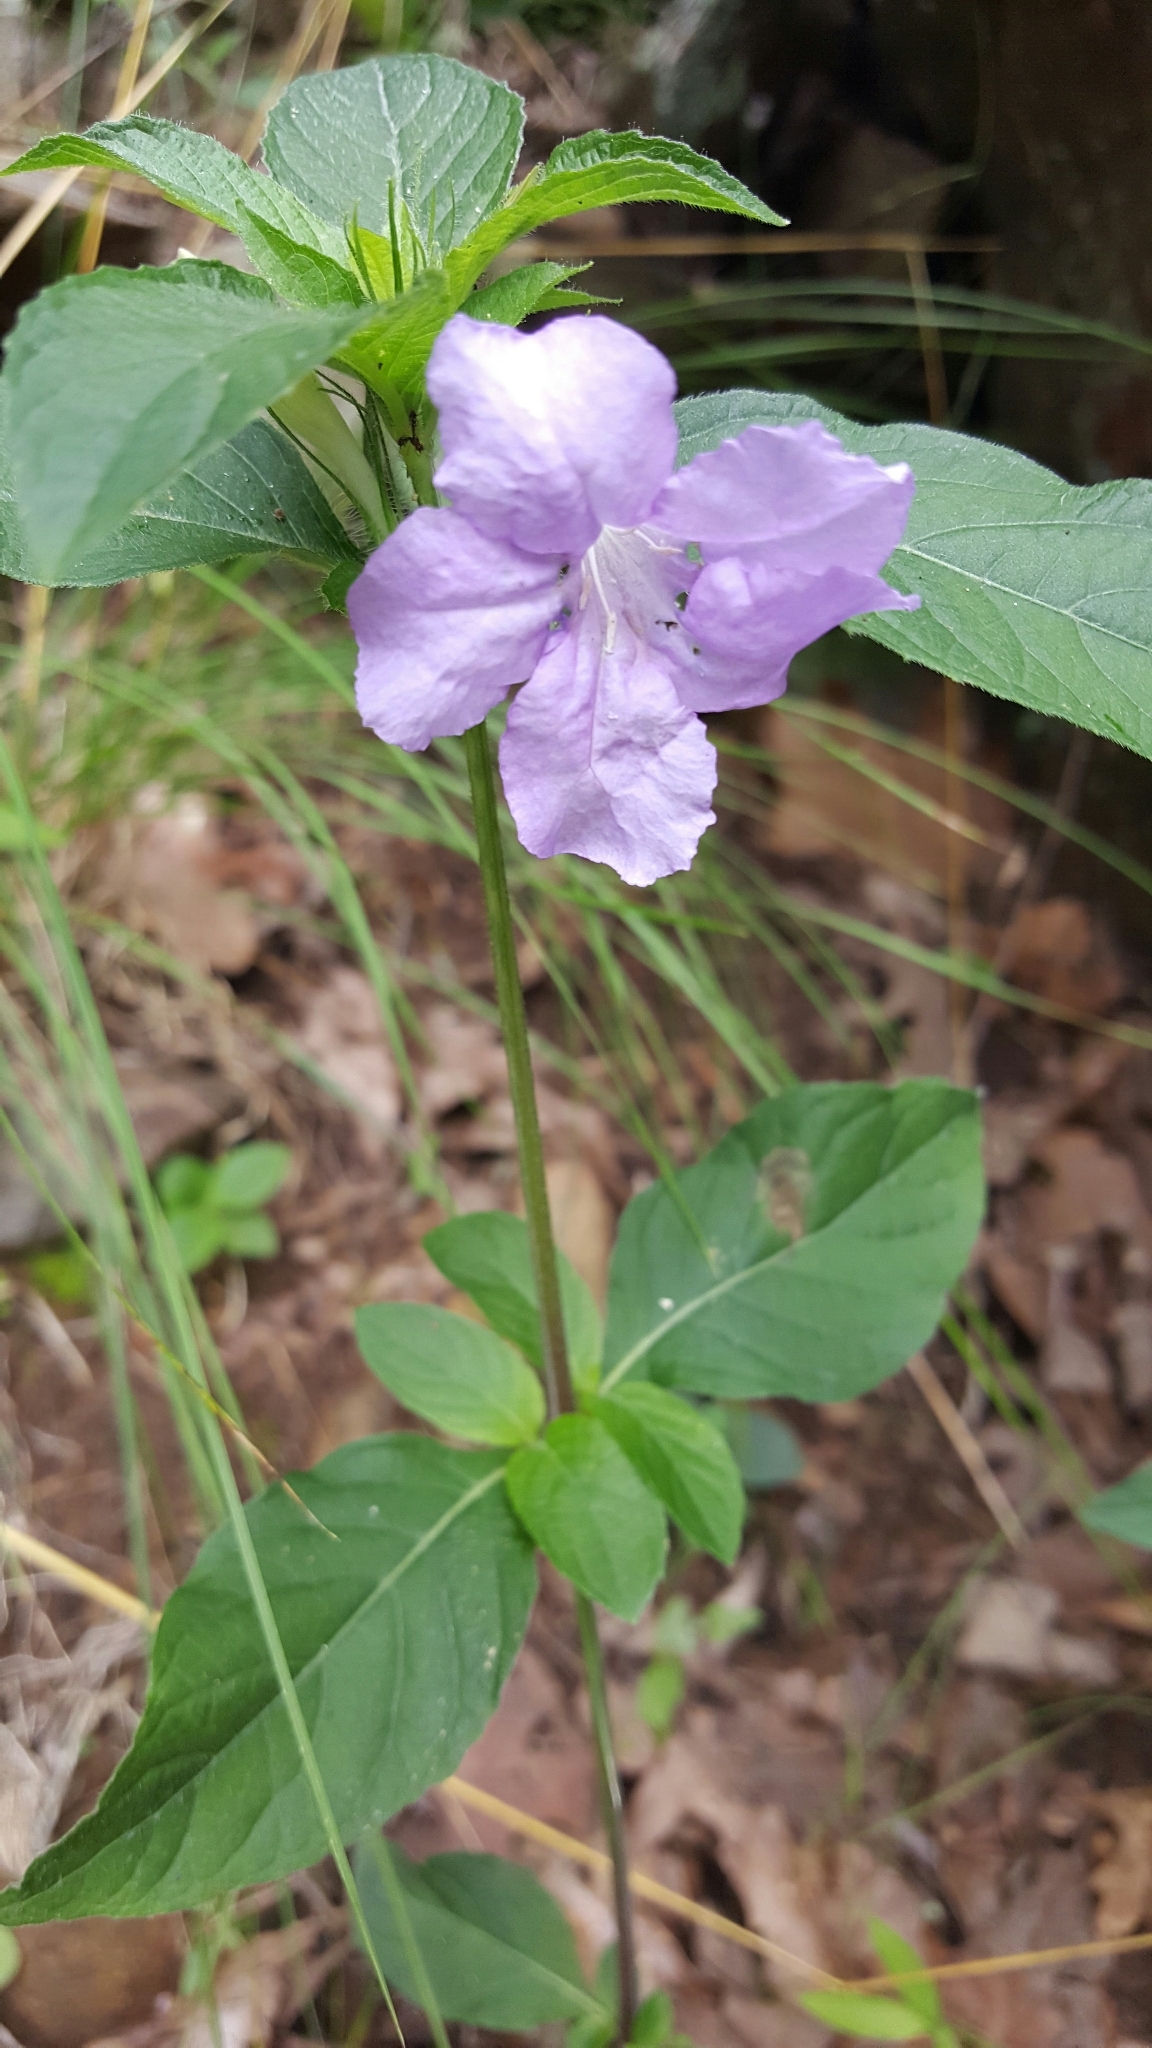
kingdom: Plantae
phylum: Tracheophyta
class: Magnoliopsida
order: Lamiales
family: Acanthaceae
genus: Ruellia
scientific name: Ruellia caroliniensis
